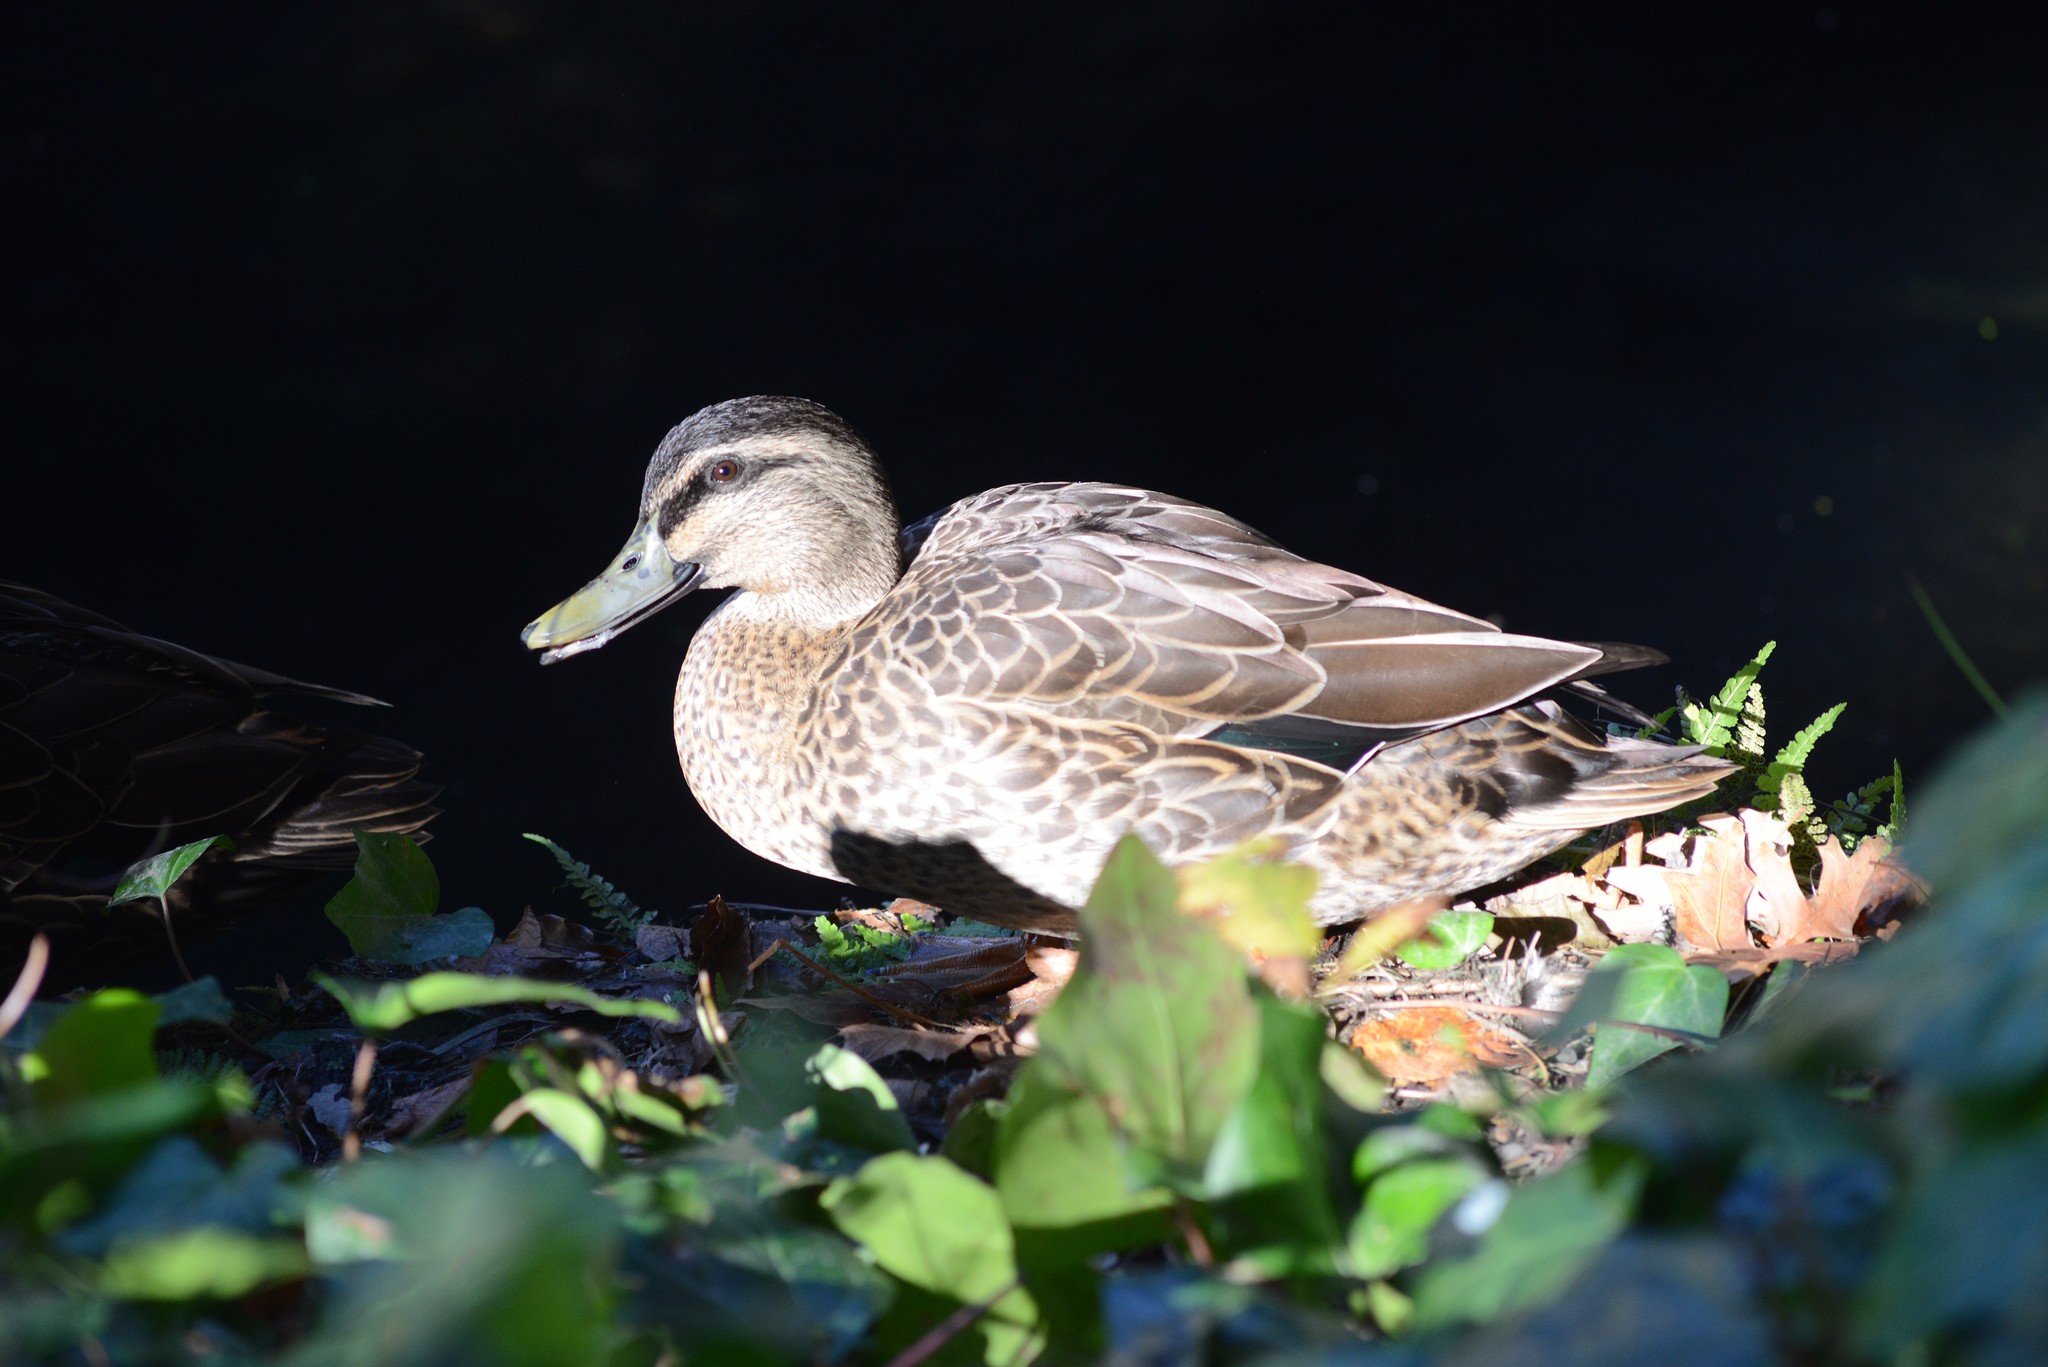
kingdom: Animalia
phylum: Chordata
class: Aves
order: Anseriformes
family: Anatidae
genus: Anas
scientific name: Anas
